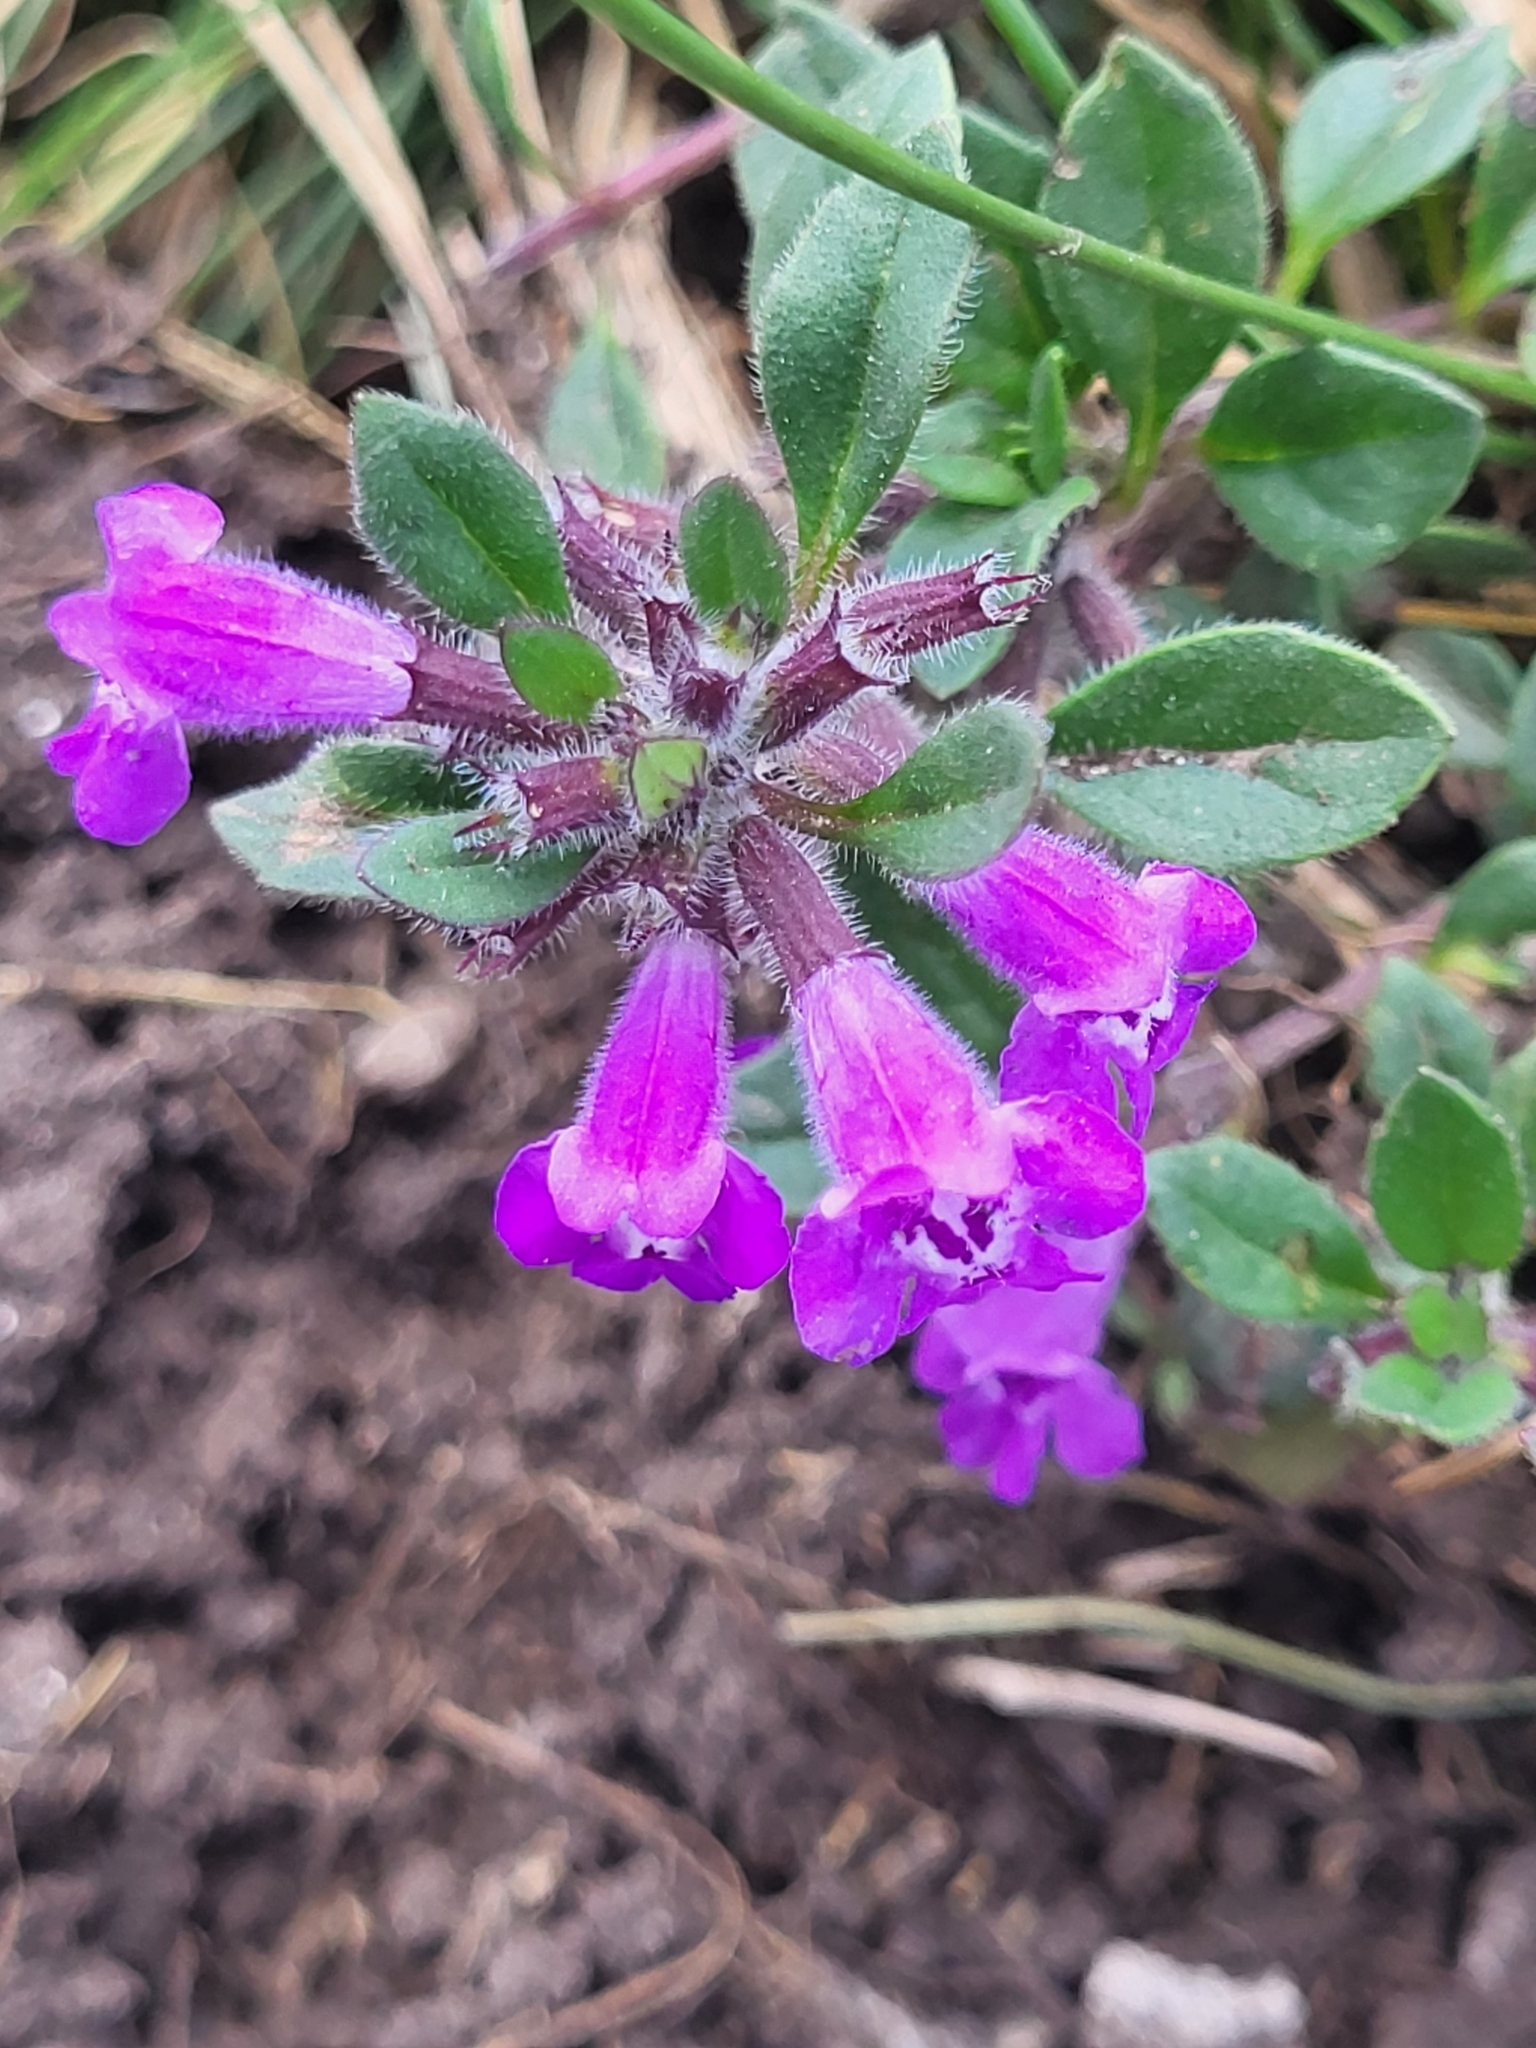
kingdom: Plantae
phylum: Tracheophyta
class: Magnoliopsida
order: Lamiales
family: Lamiaceae
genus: Clinopodium
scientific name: Clinopodium alpinum
